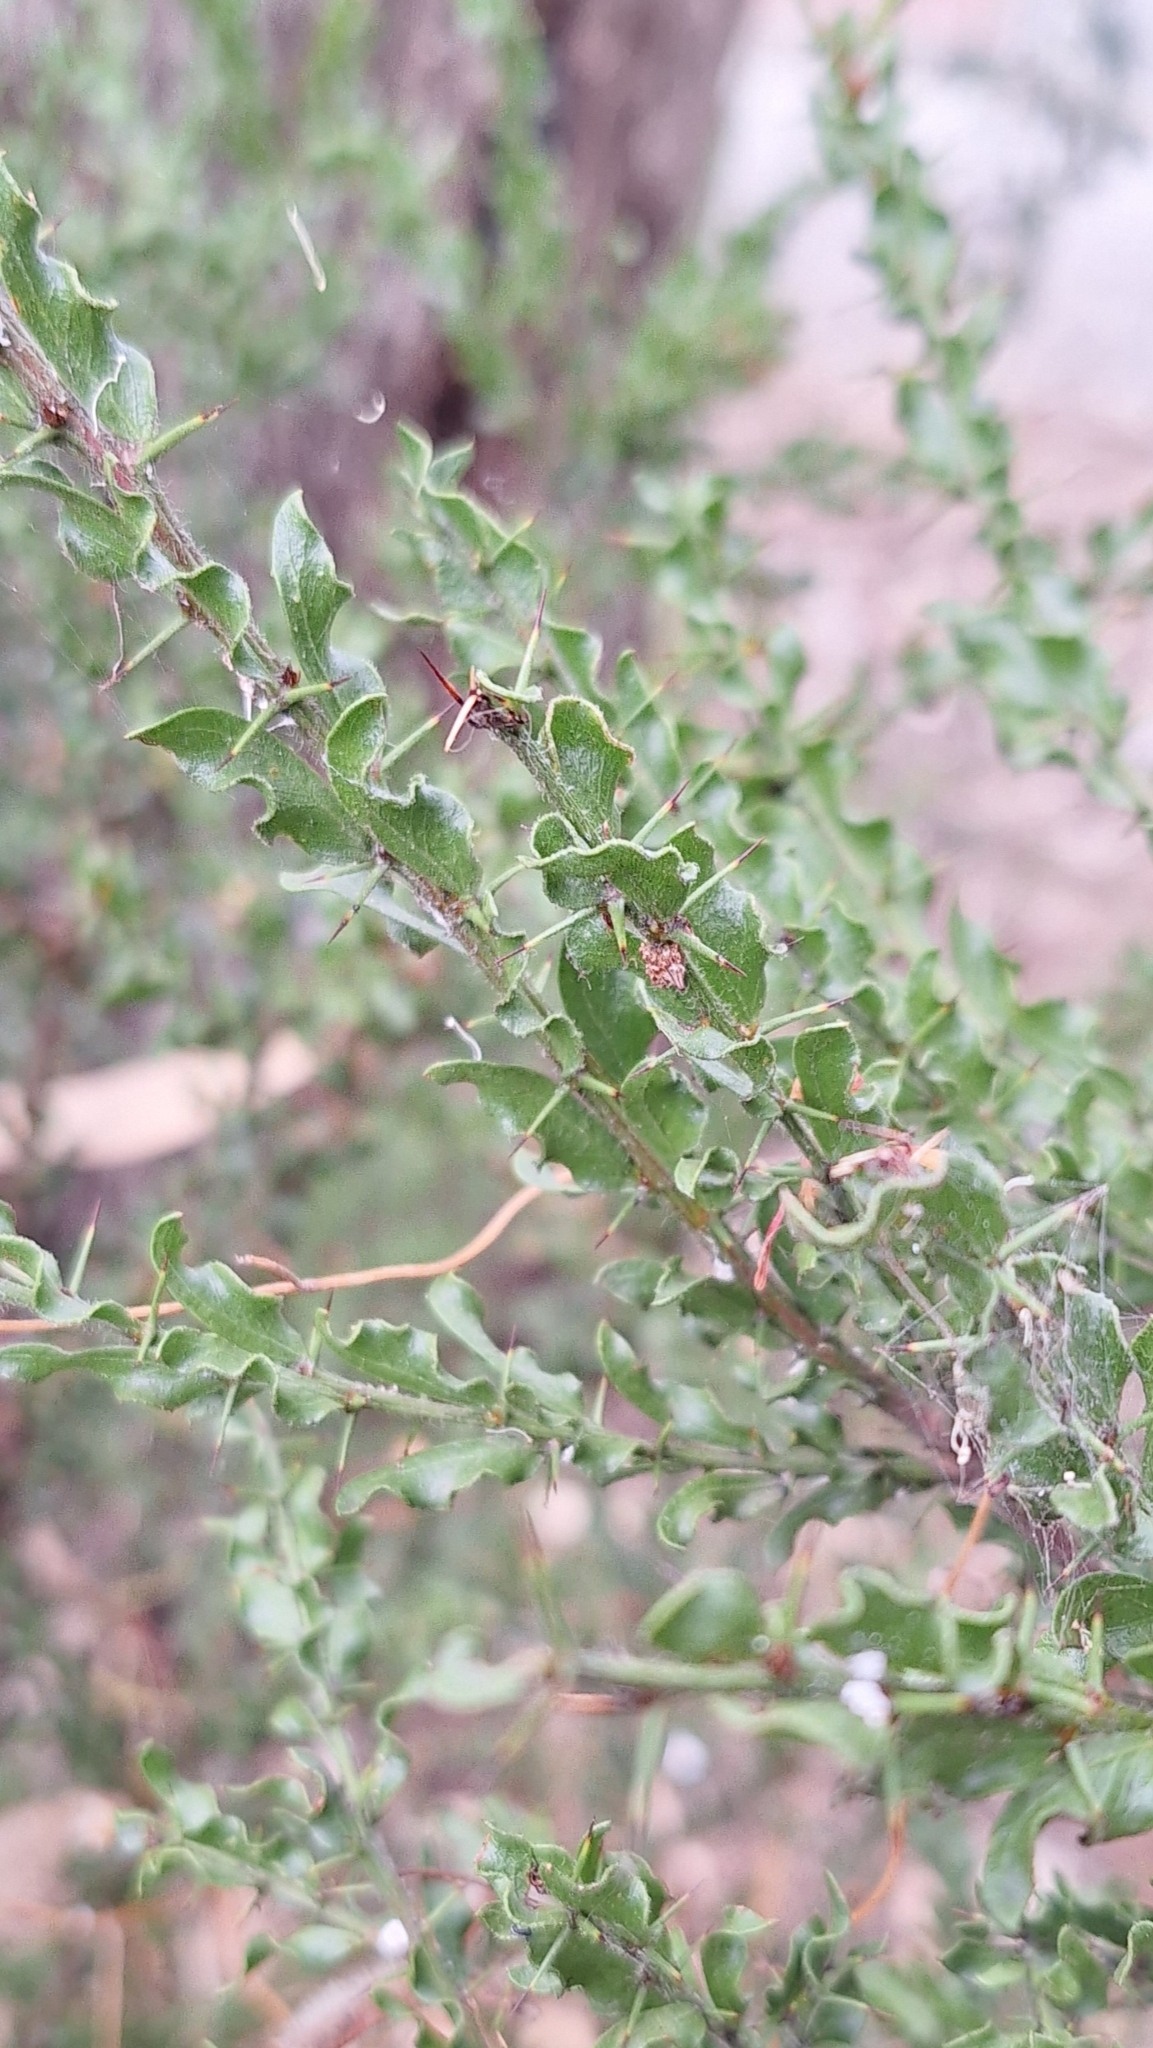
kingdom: Plantae
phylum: Tracheophyta
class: Magnoliopsida
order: Fabales
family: Fabaceae
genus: Acacia
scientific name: Acacia paradoxa
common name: Paradox acacia
